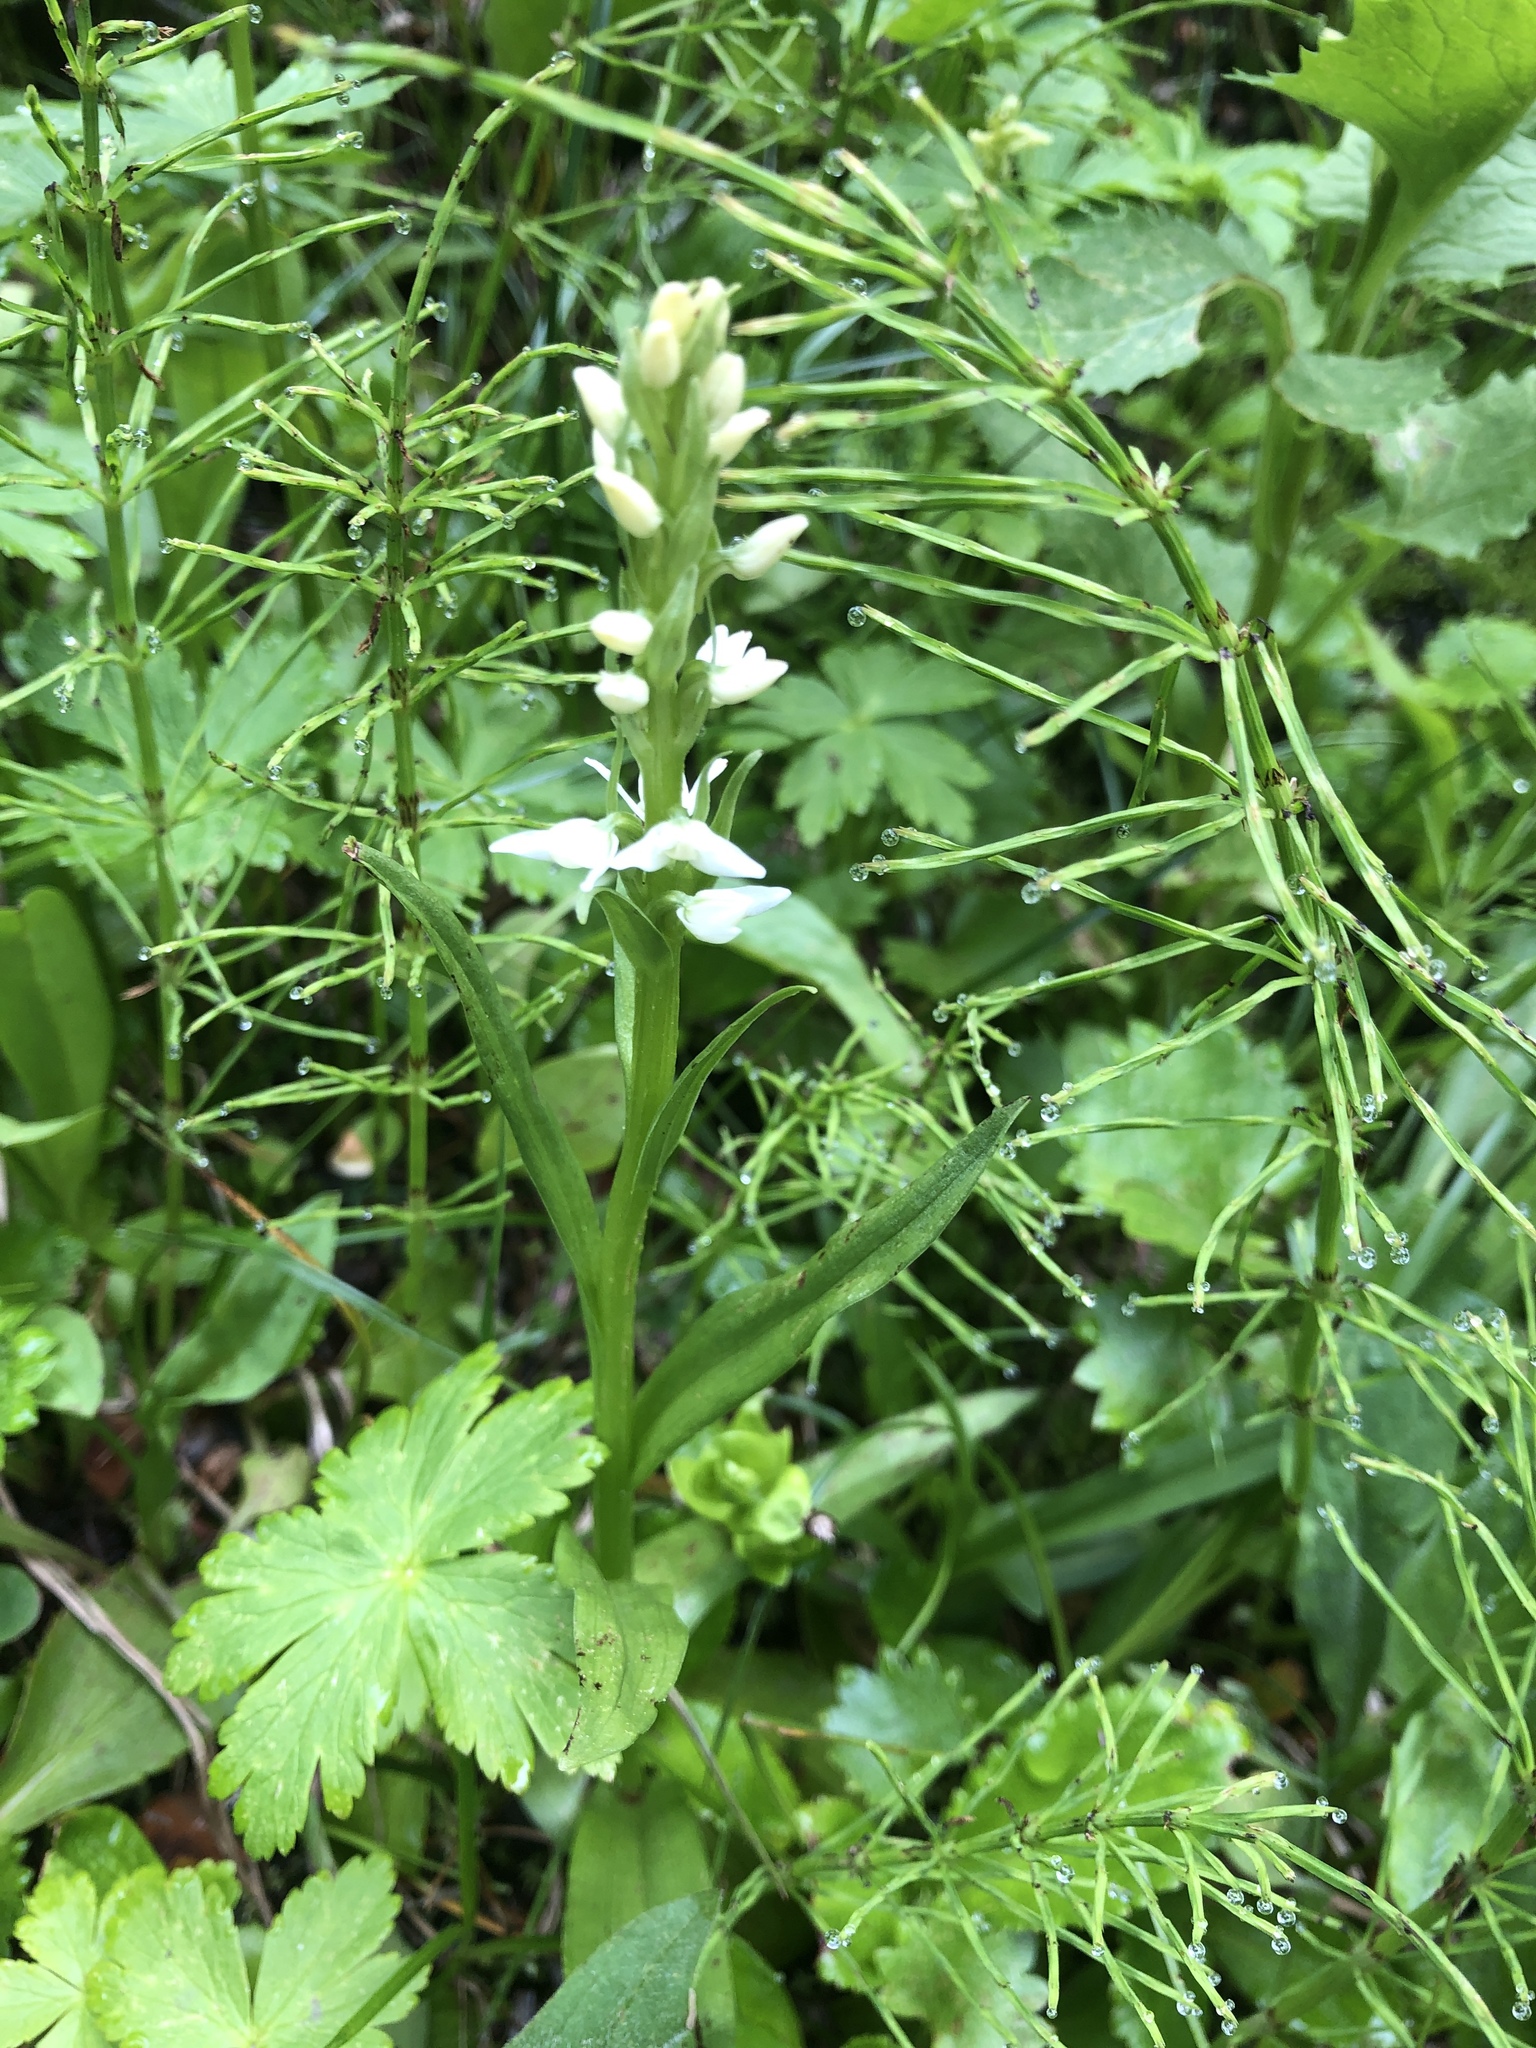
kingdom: Plantae
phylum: Tracheophyta
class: Liliopsida
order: Asparagales
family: Orchidaceae
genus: Platanthera
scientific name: Platanthera dilatata
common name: Bog candles
